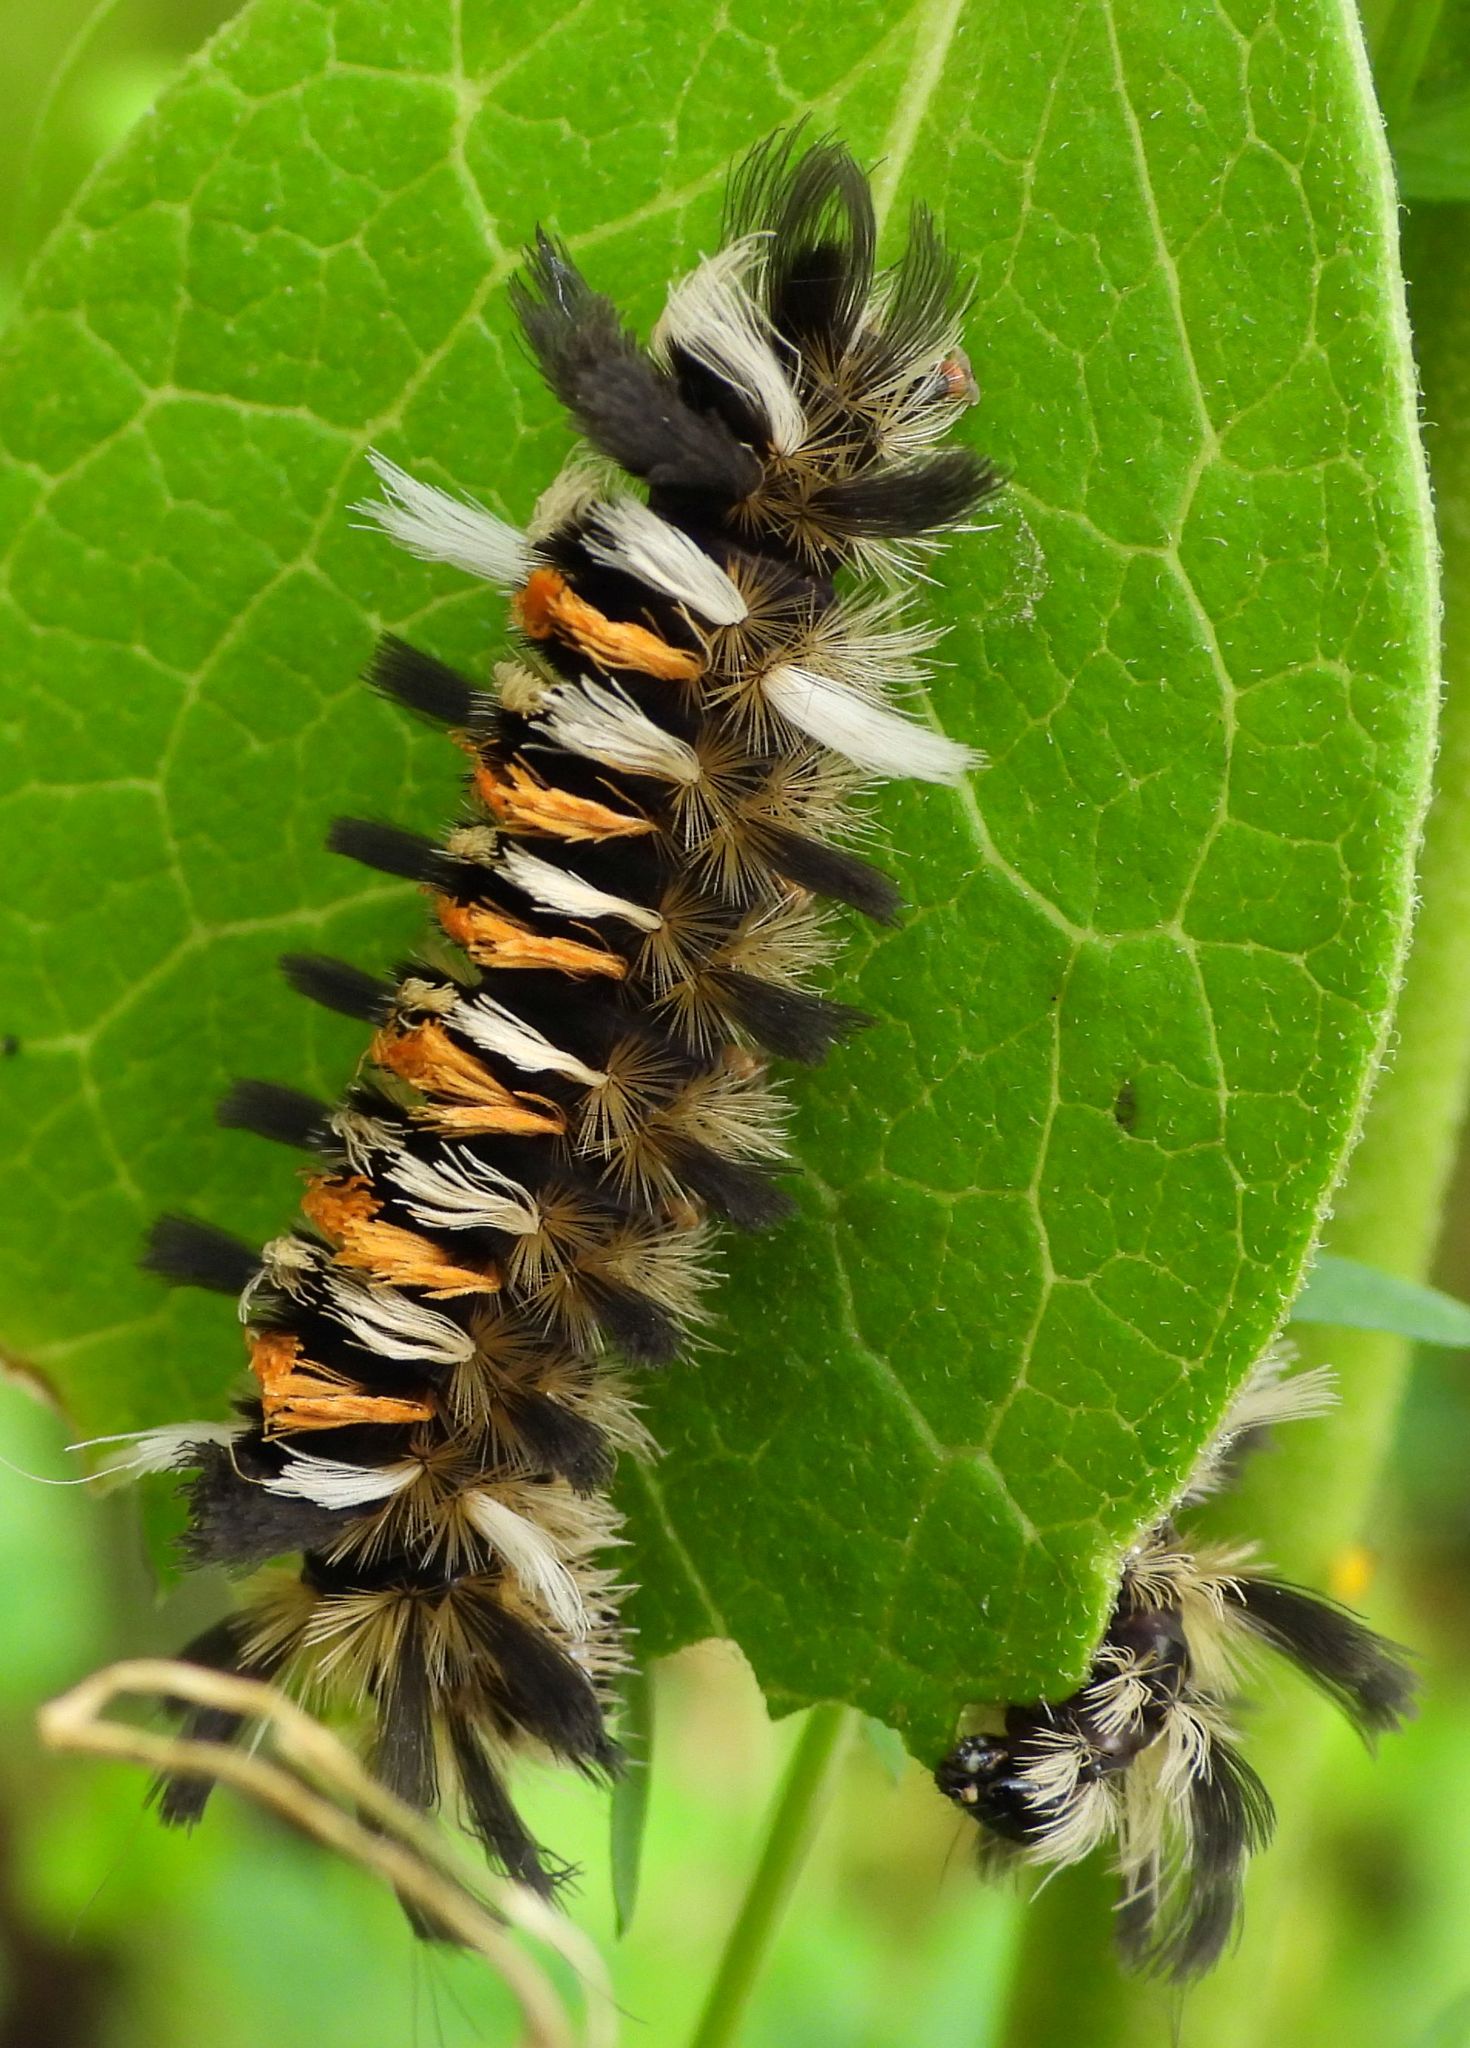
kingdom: Animalia
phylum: Arthropoda
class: Insecta
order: Lepidoptera
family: Erebidae
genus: Euchaetes
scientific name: Euchaetes egle
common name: Milkweed tussock moth
